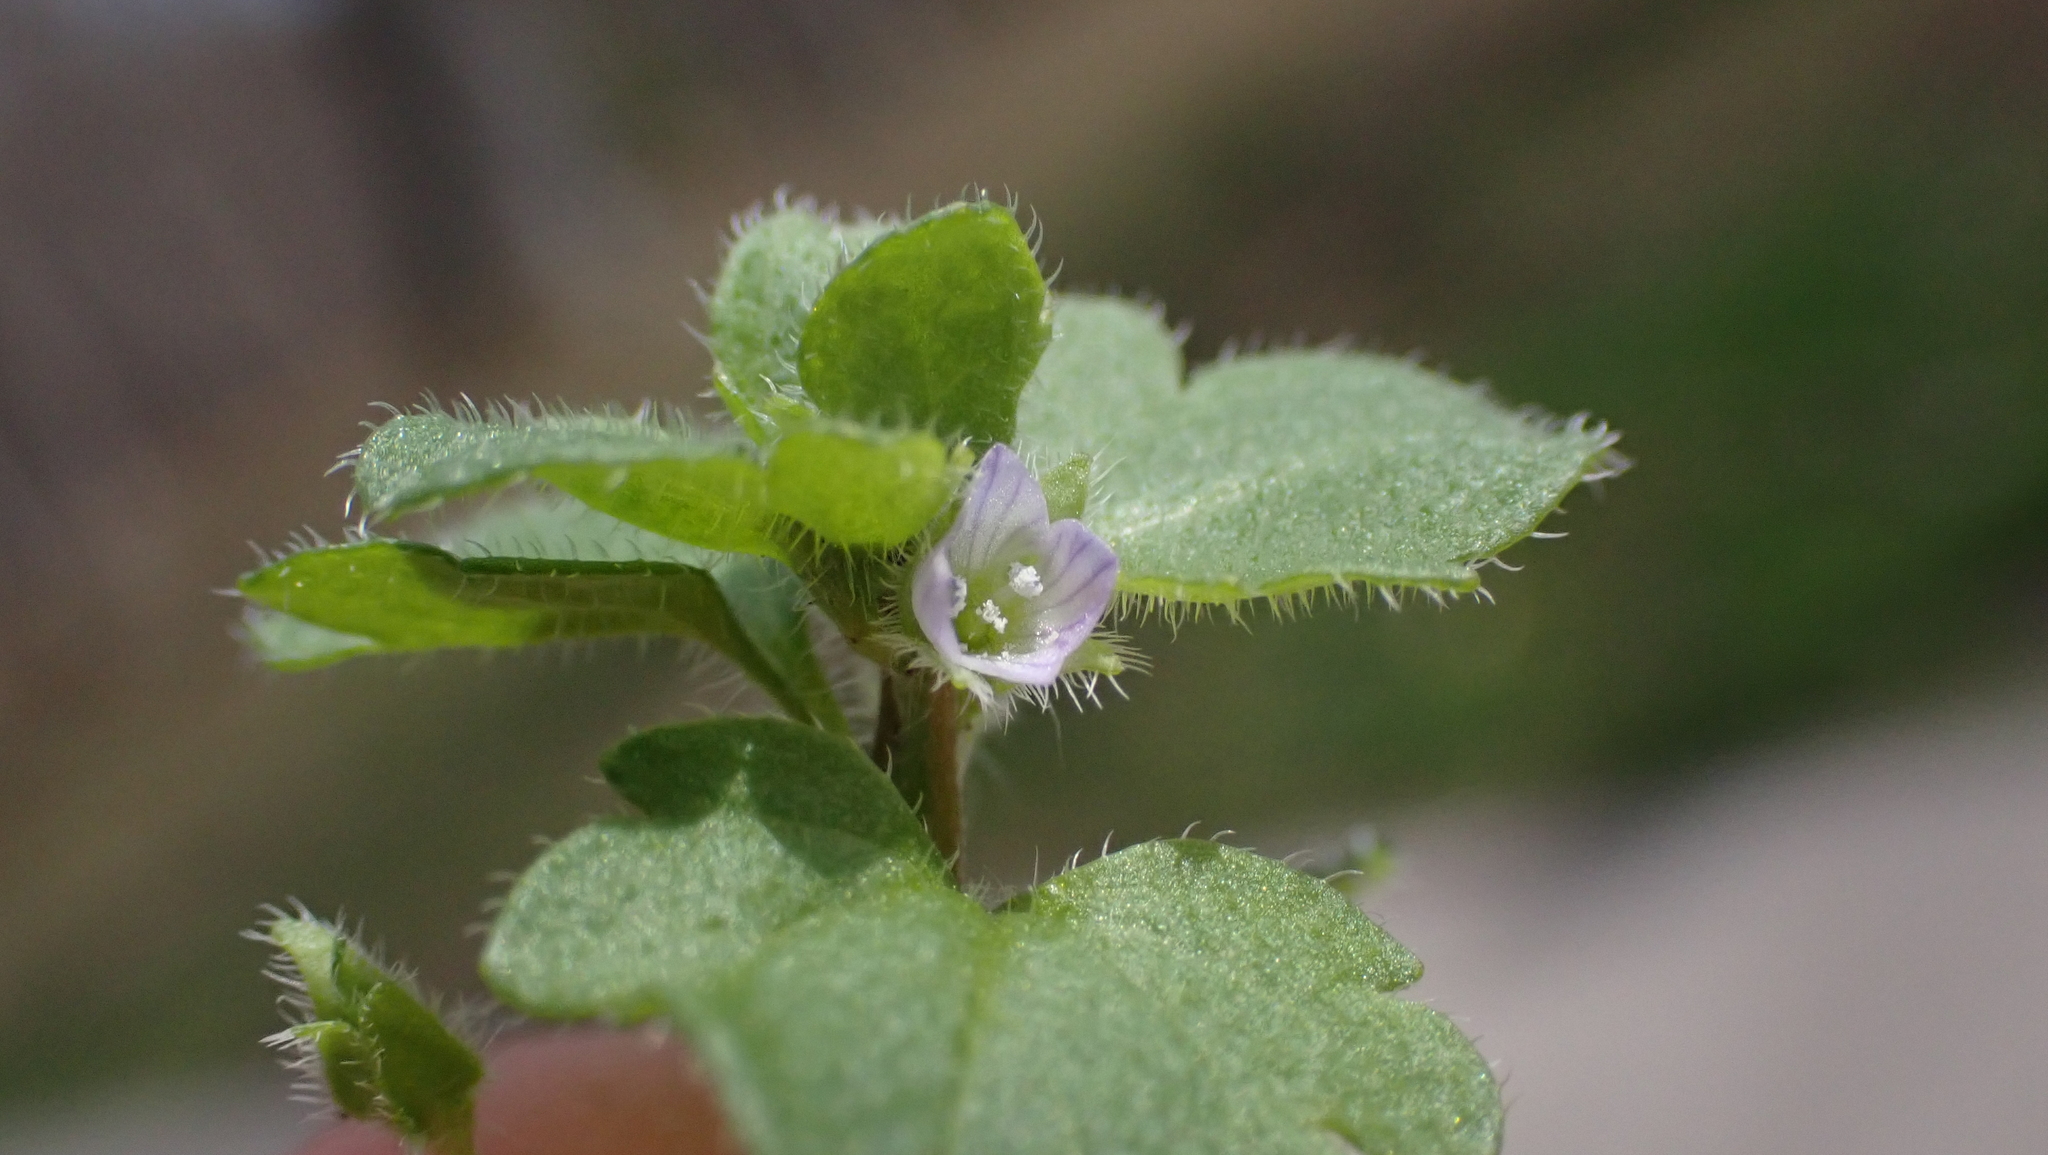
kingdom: Plantae
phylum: Tracheophyta
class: Magnoliopsida
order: Lamiales
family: Plantaginaceae
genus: Veronica
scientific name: Veronica sublobata
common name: False ivy-leaved speedwell
